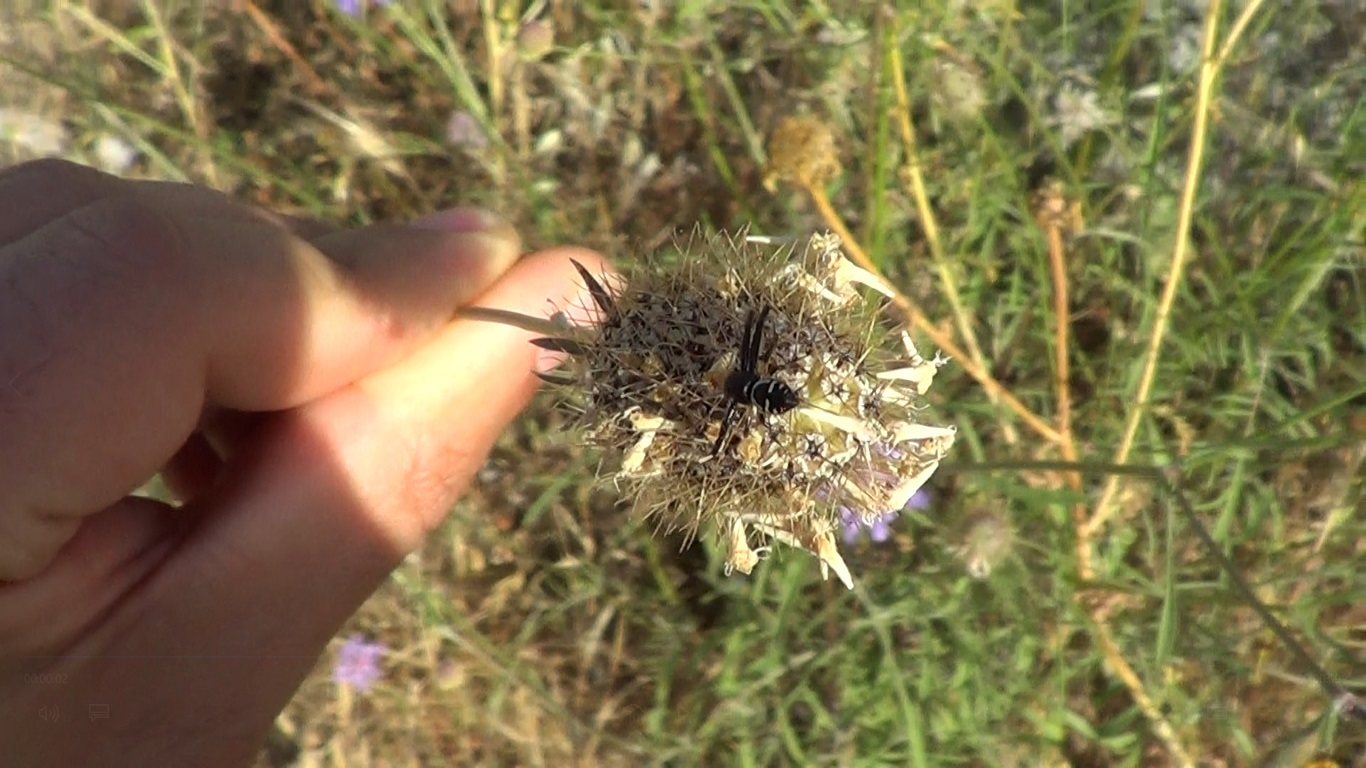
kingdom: Animalia
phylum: Arthropoda
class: Arachnida
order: Araneae
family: Thomisidae
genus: Synema
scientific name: Synema globosum
